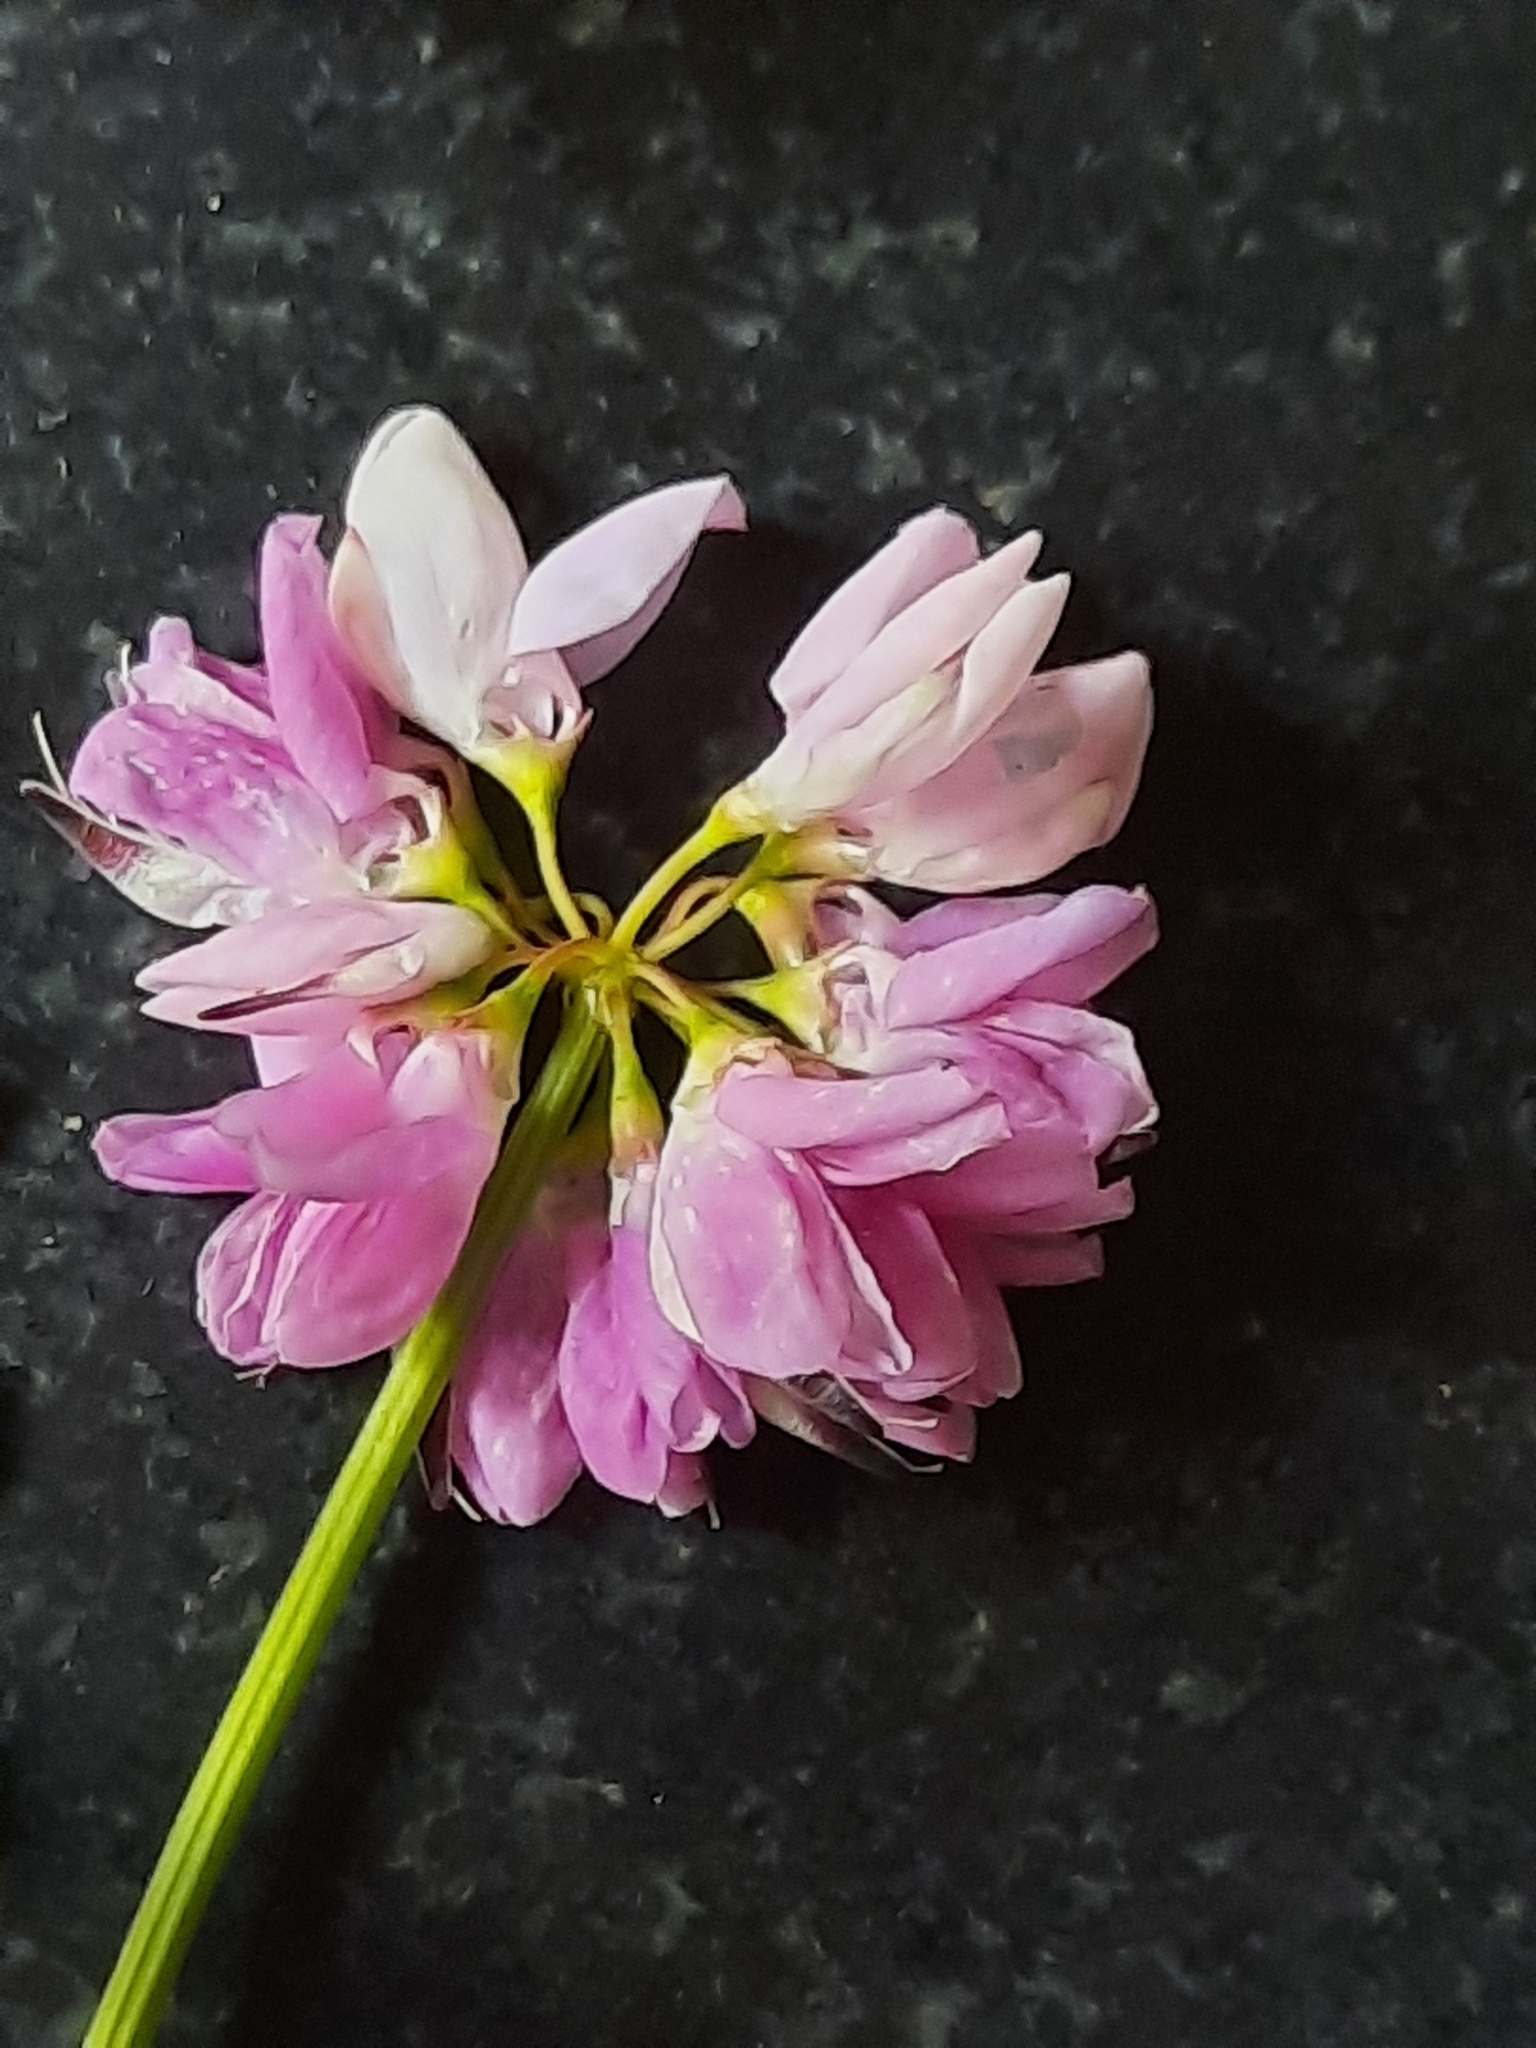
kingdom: Plantae
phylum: Tracheophyta
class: Magnoliopsida
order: Fabales
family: Fabaceae
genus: Coronilla
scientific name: Coronilla varia
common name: Crownvetch
